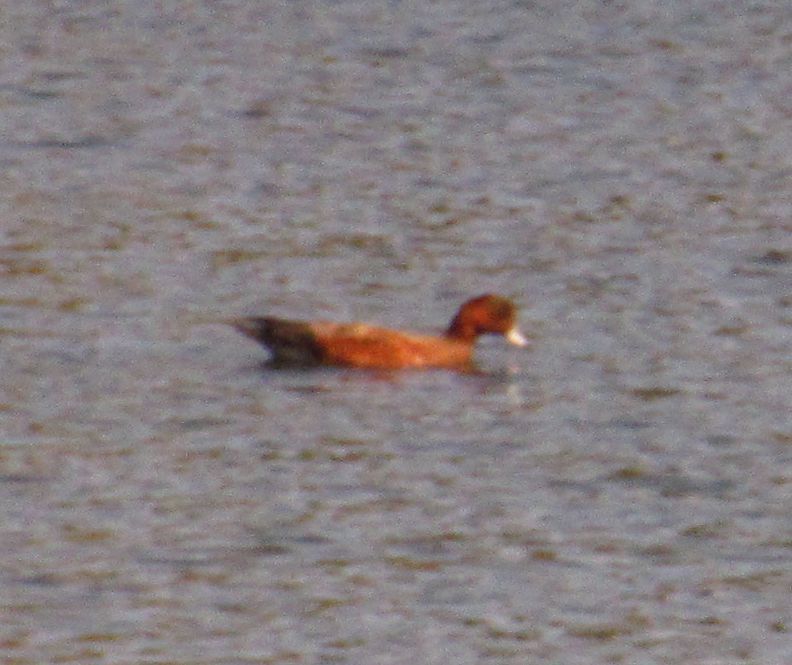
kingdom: Animalia
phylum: Chordata
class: Aves
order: Anseriformes
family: Anatidae
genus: Mareca
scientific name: Mareca penelope
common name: Eurasian wigeon
